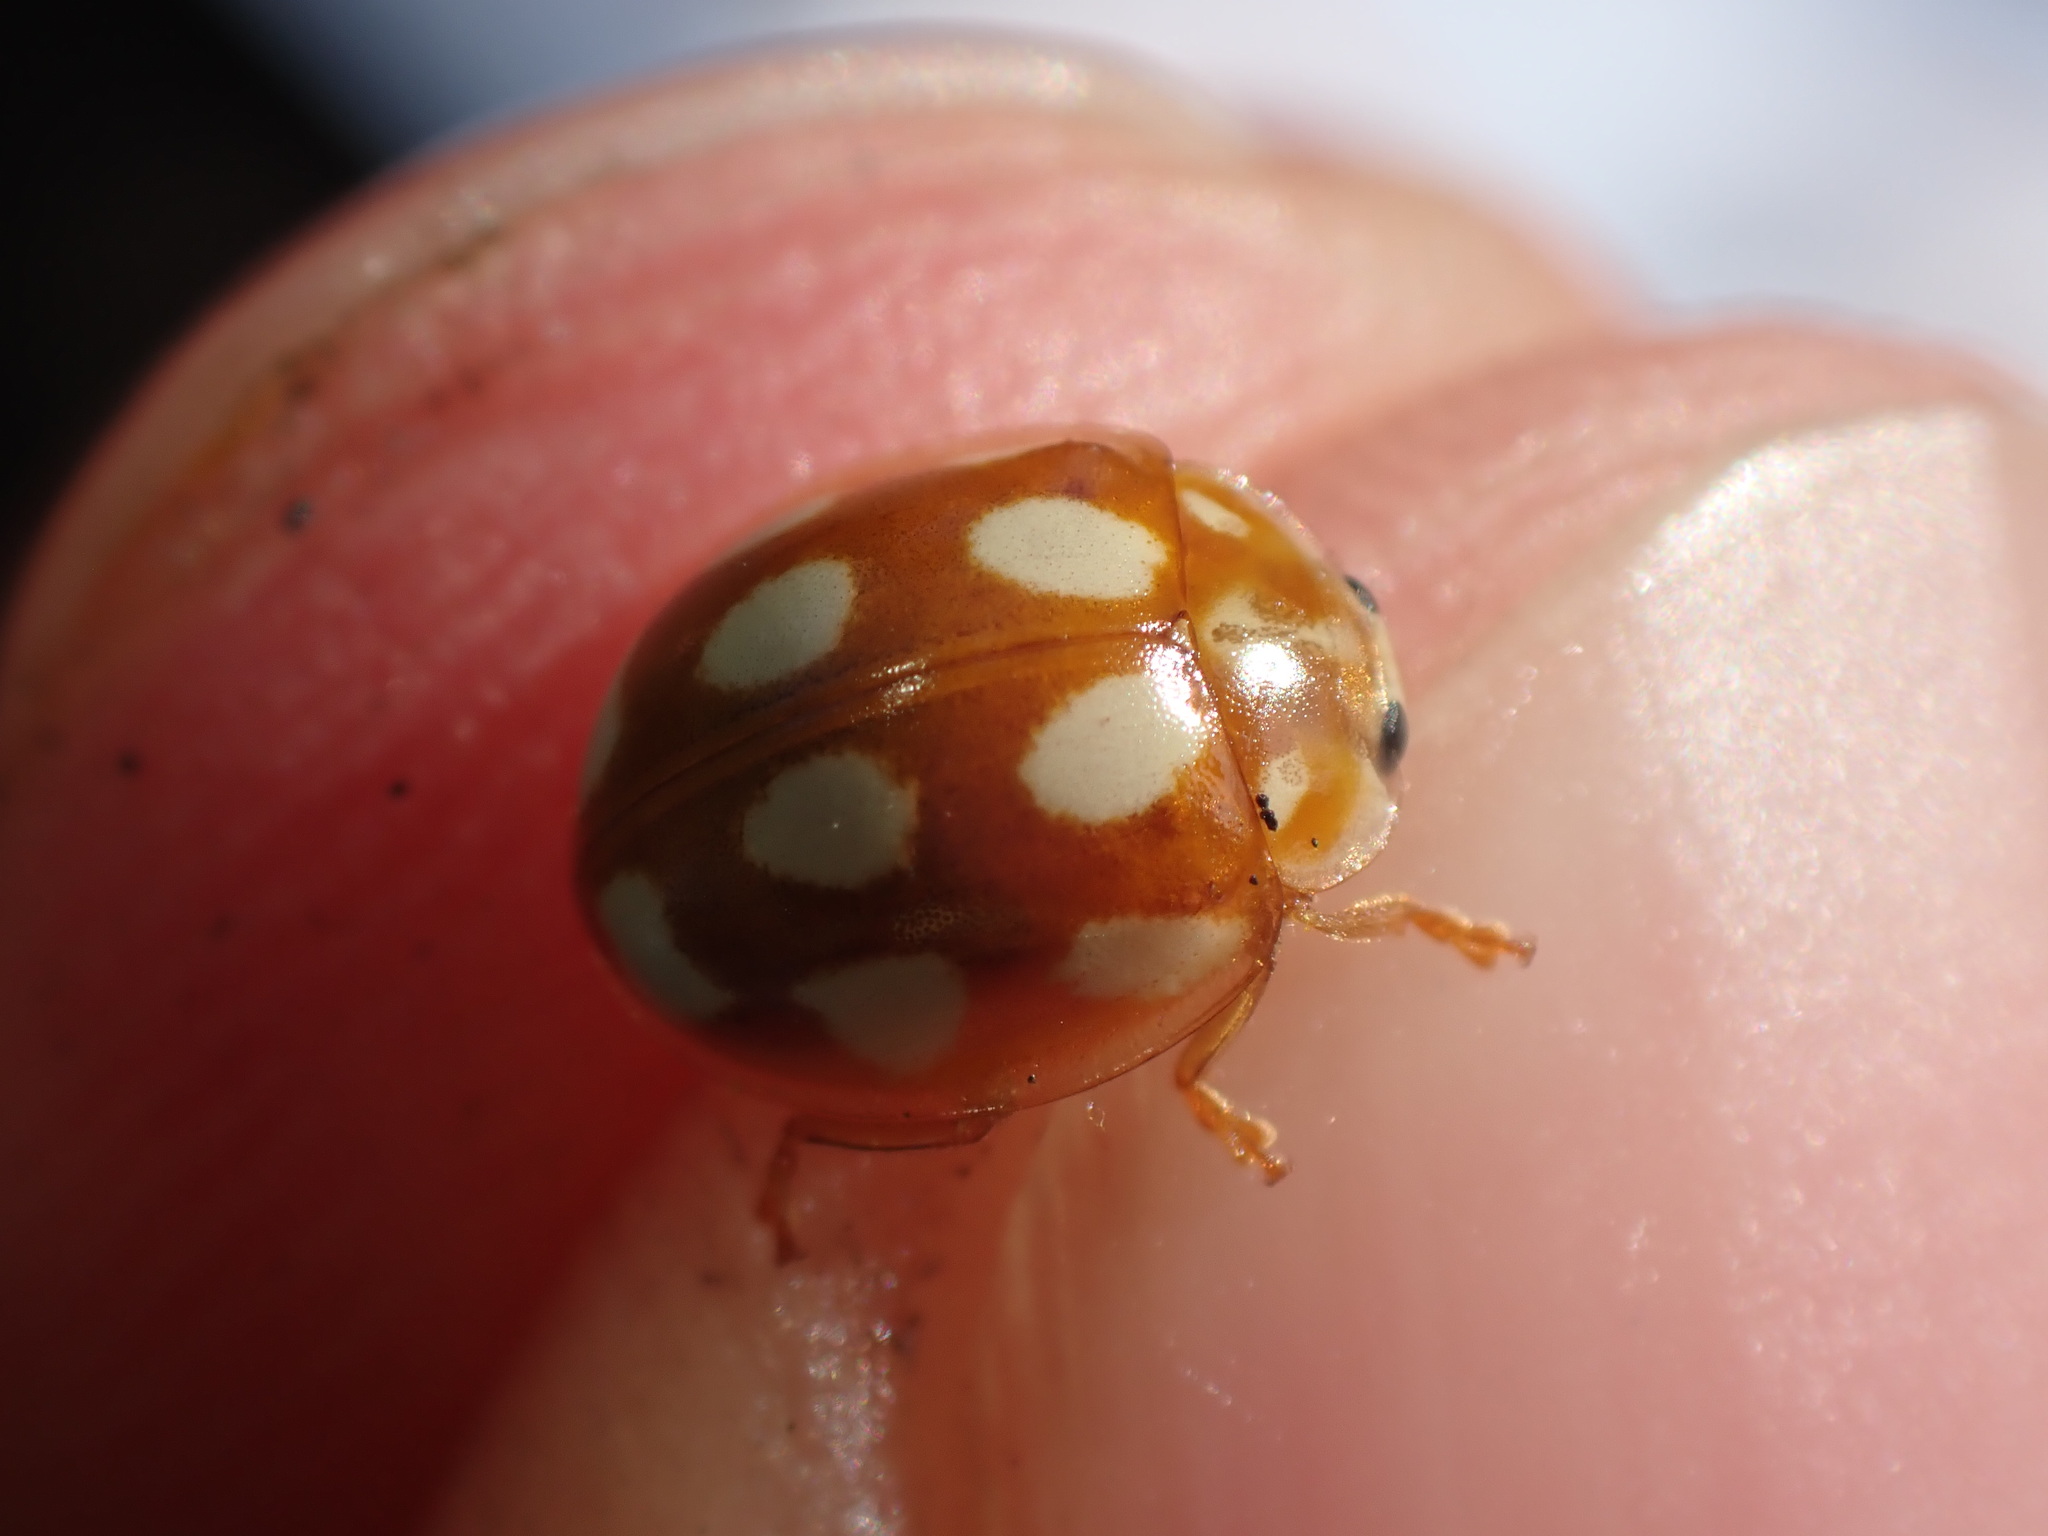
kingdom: Animalia
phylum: Arthropoda
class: Insecta
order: Coleoptera
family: Coccinellidae
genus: Calvia
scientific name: Calvia decemguttata
